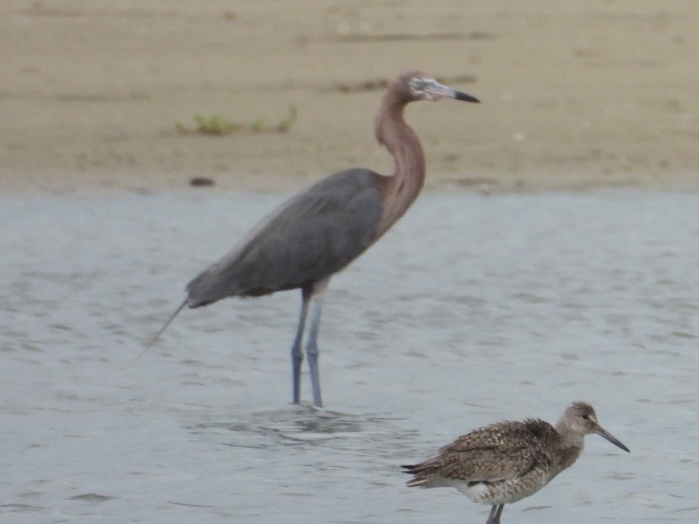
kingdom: Animalia
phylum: Chordata
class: Aves
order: Pelecaniformes
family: Ardeidae
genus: Egretta
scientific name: Egretta rufescens
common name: Reddish egret
